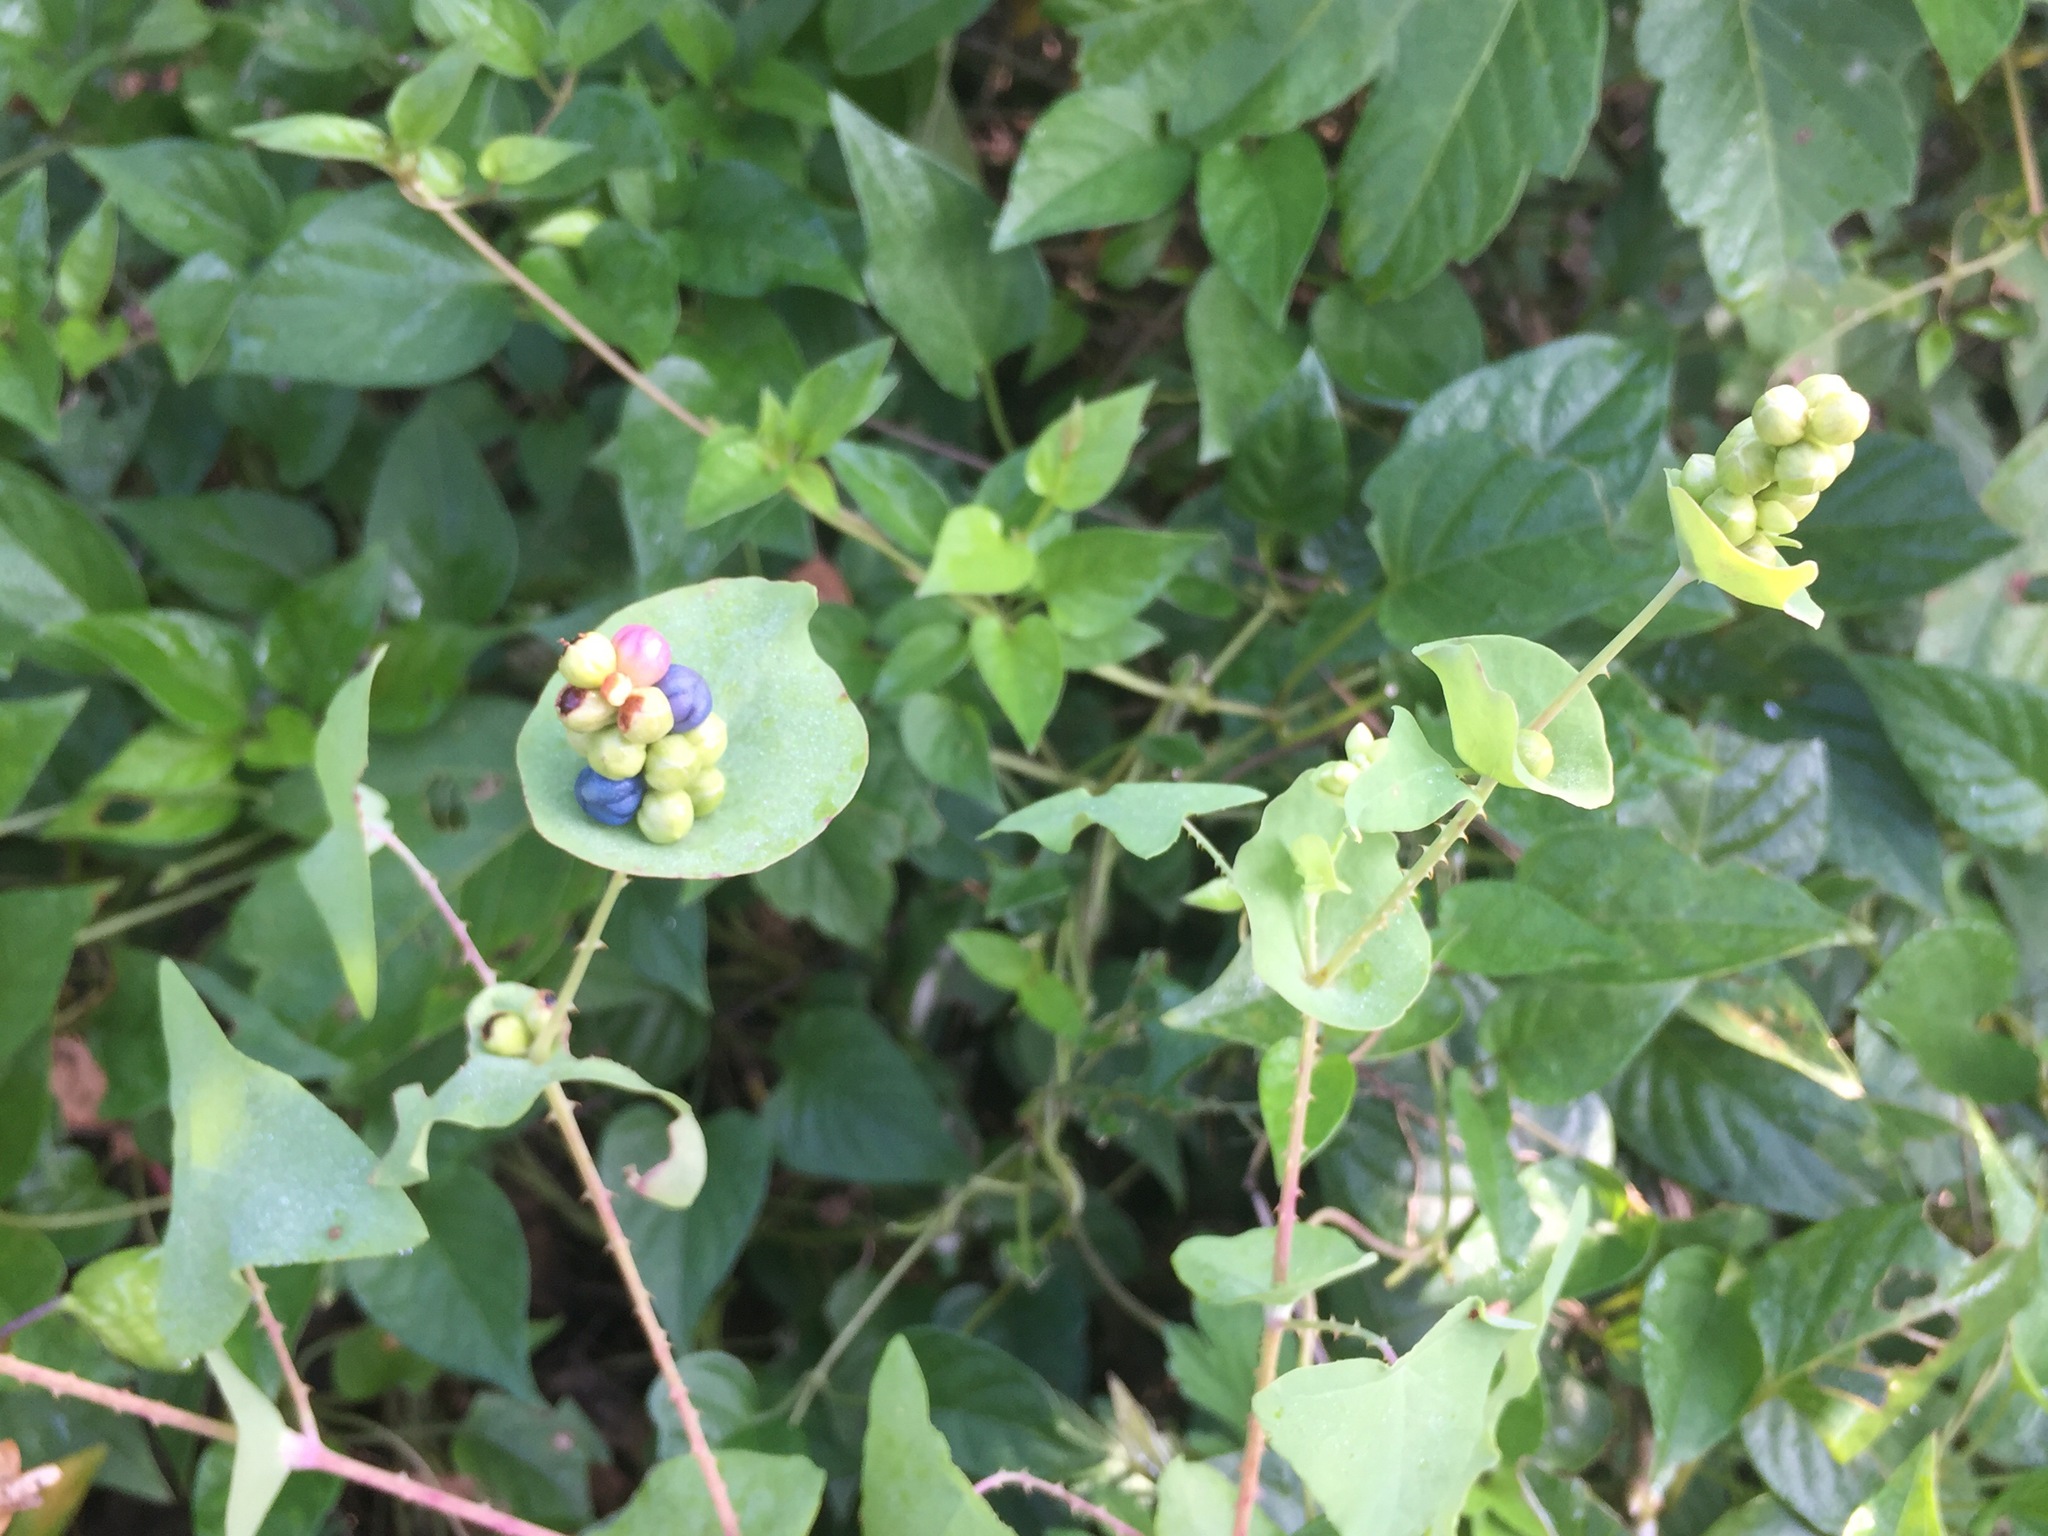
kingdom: Plantae
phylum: Tracheophyta
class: Magnoliopsida
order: Caryophyllales
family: Polygonaceae
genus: Persicaria
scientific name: Persicaria perfoliata
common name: Asiatic tearthumb
